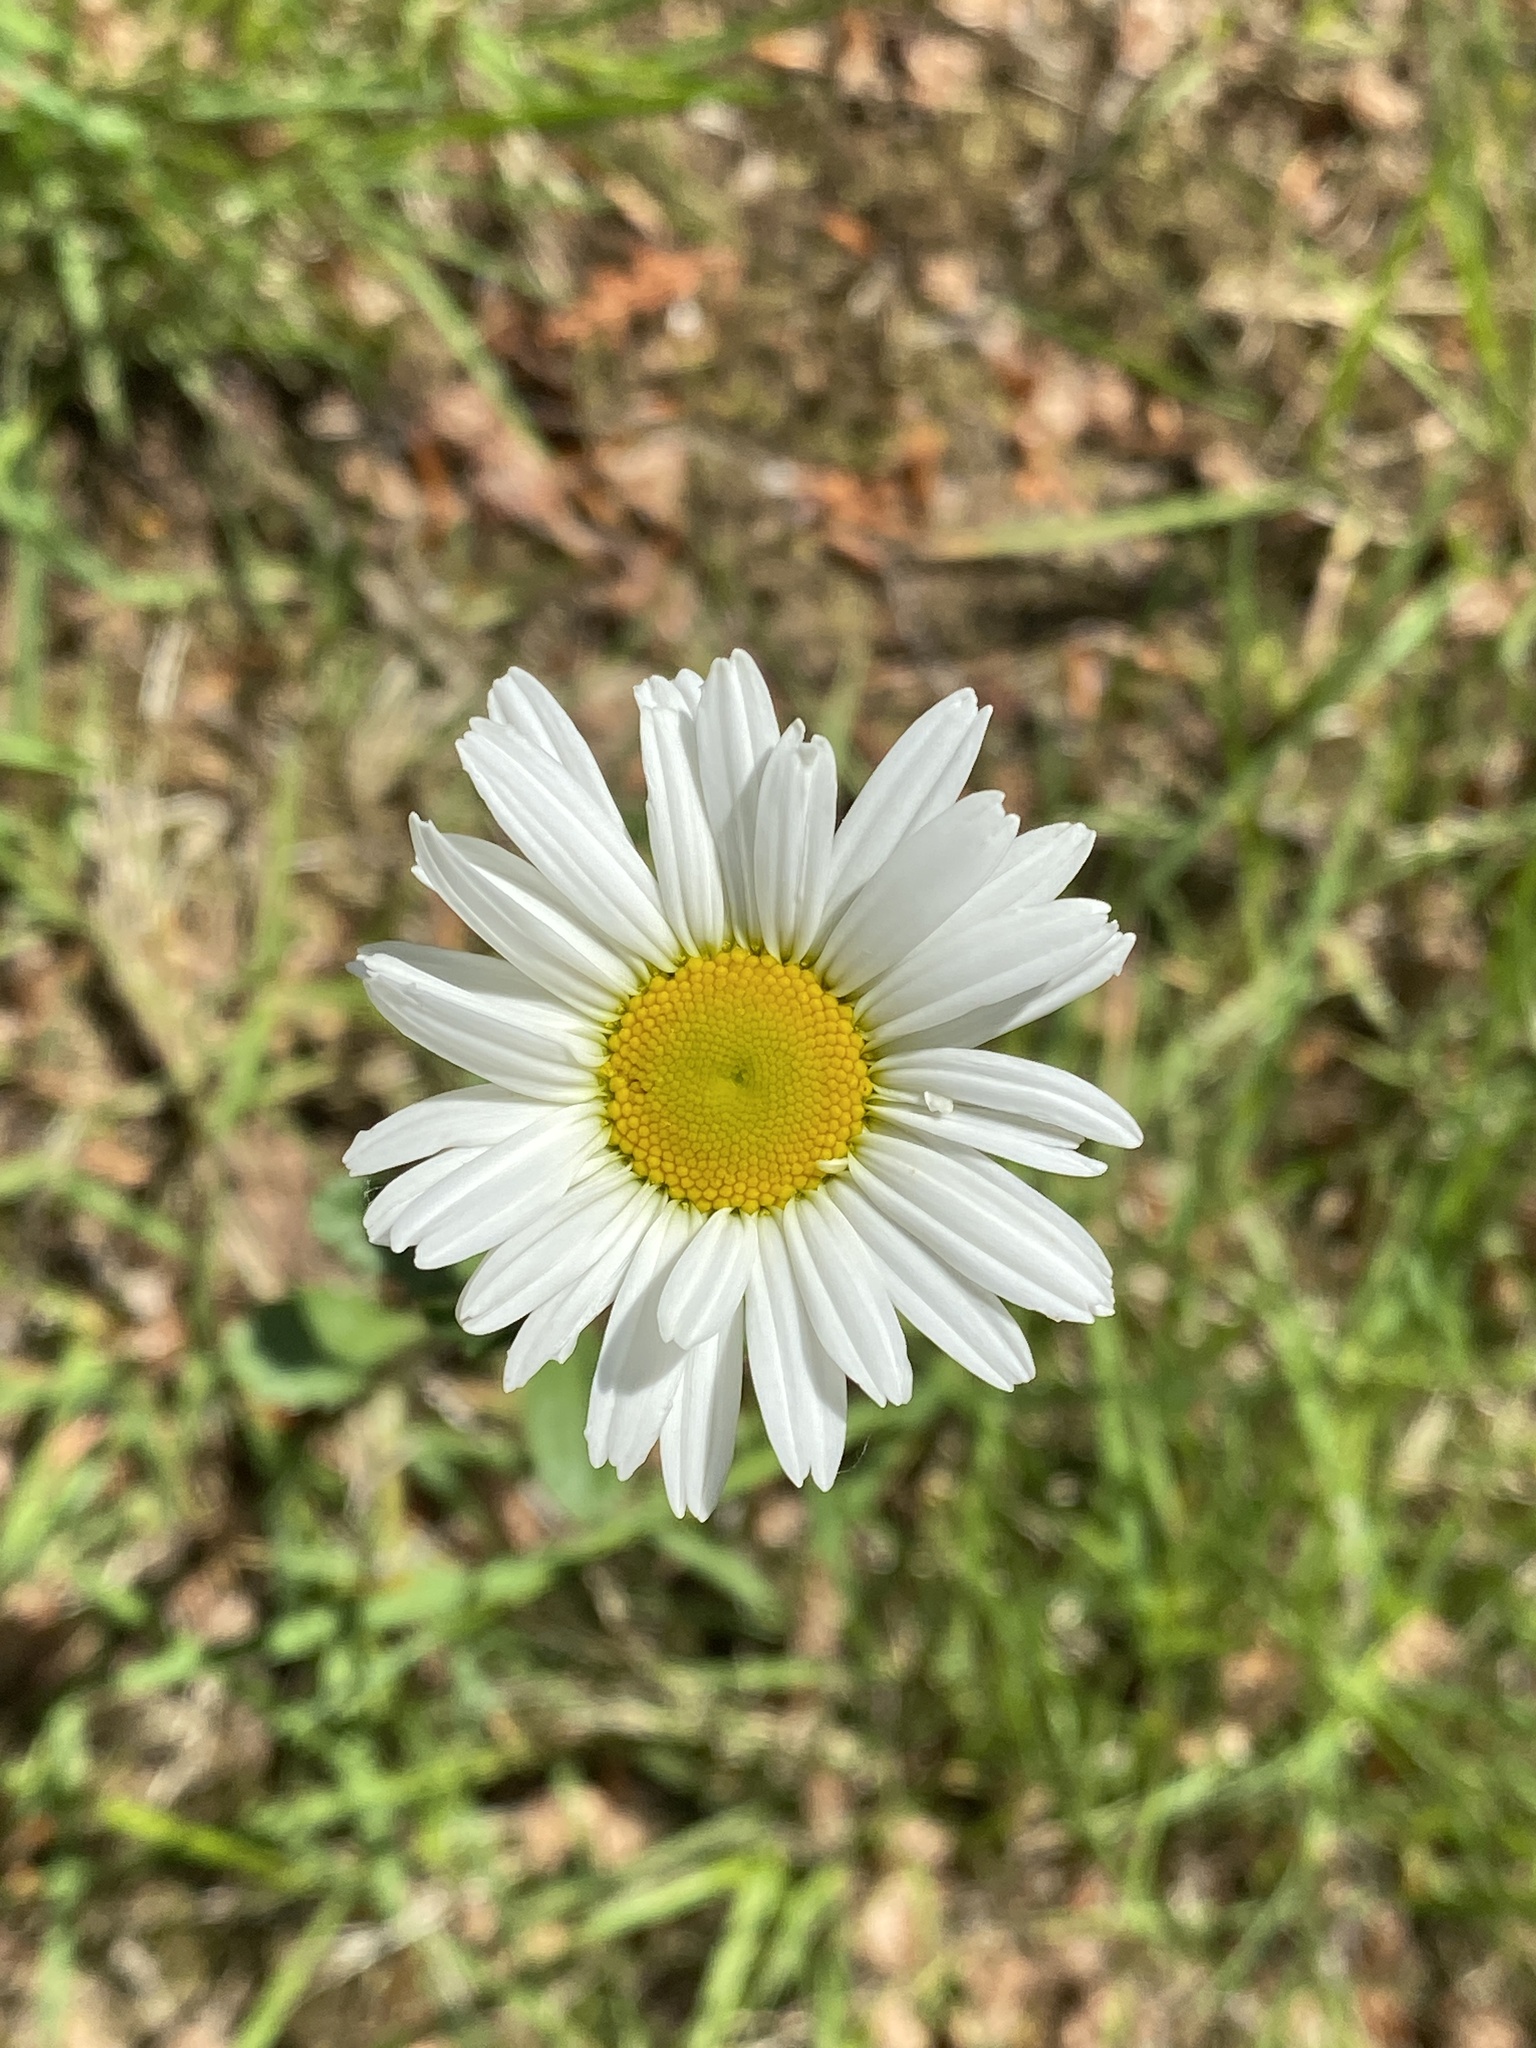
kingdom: Plantae
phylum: Tracheophyta
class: Magnoliopsida
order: Asterales
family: Asteraceae
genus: Leucanthemum
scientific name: Leucanthemum ircutianum
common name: Daisy
